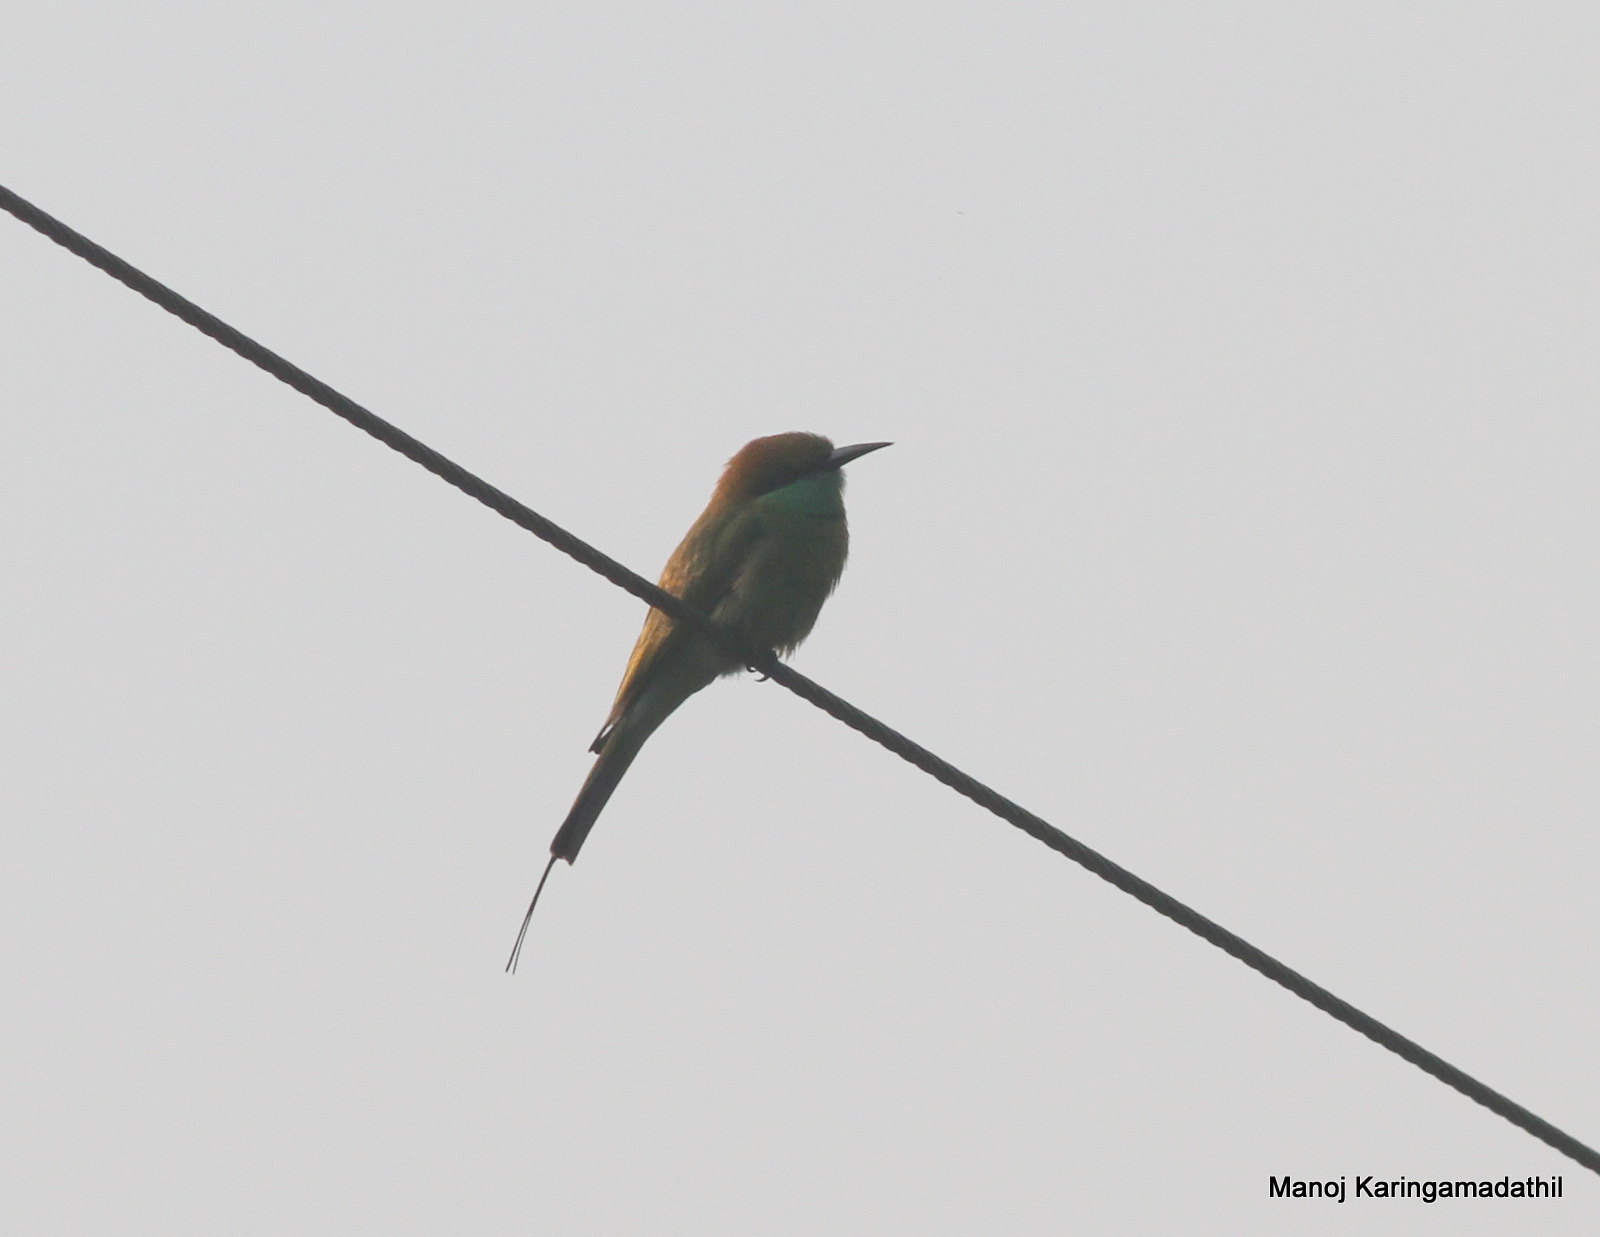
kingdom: Animalia
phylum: Chordata
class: Aves
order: Coraciiformes
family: Meropidae
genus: Merops
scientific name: Merops orientalis
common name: Green bee-eater
